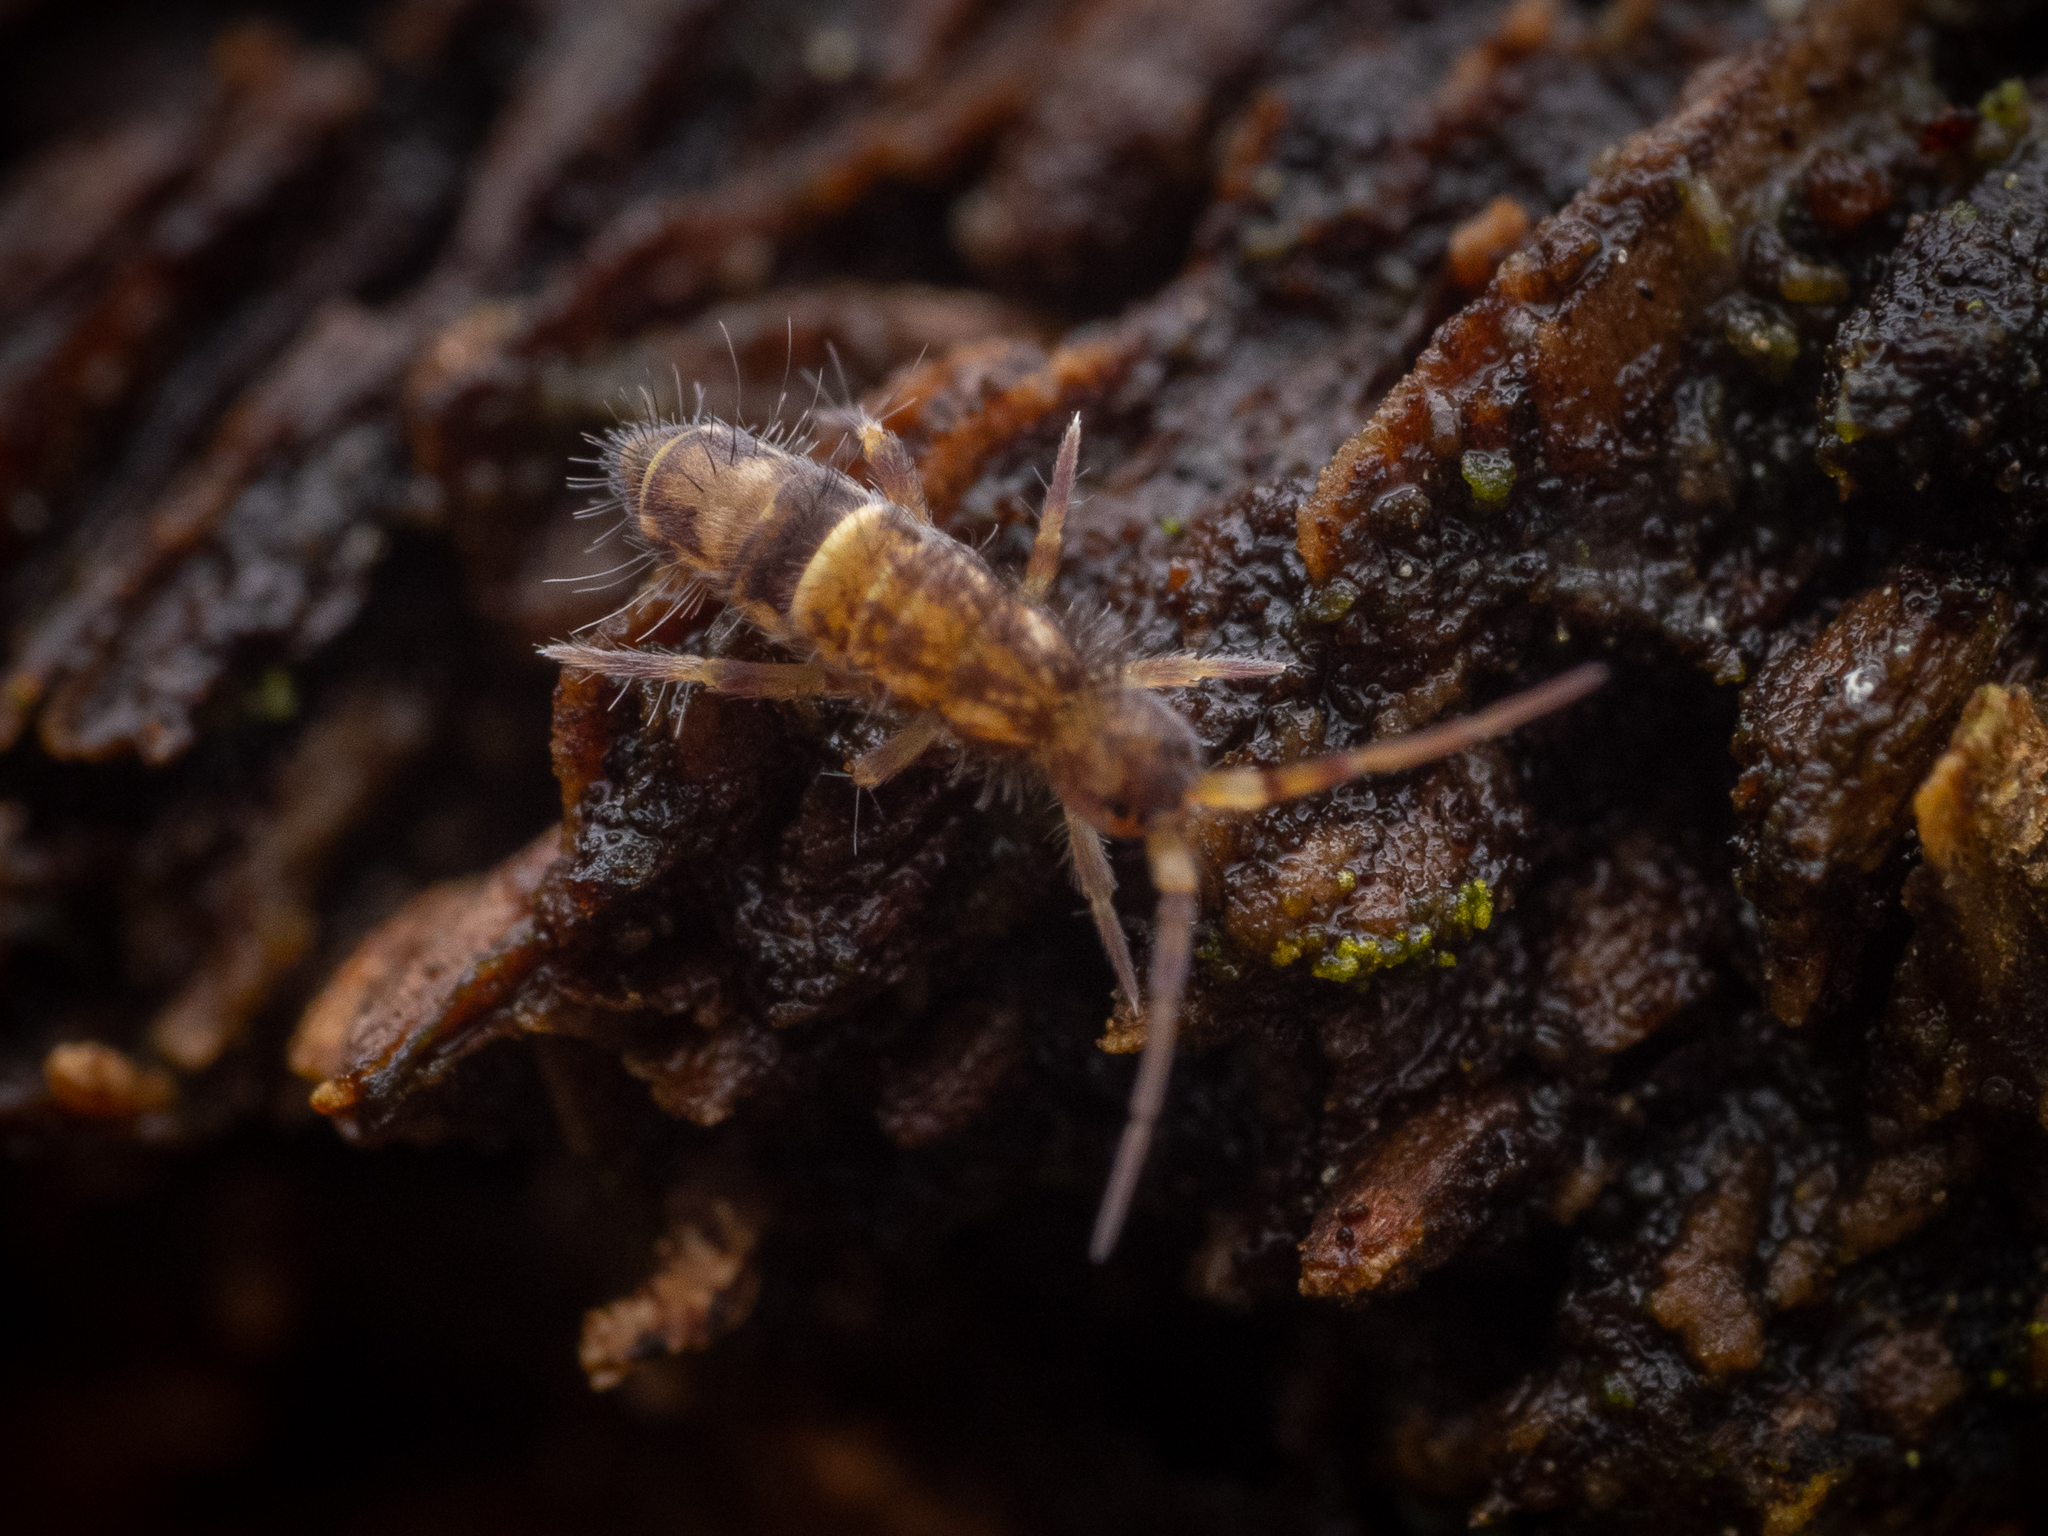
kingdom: Animalia
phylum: Arthropoda
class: Collembola
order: Entomobryomorpha
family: Orchesellidae
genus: Orchesella
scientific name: Orchesella cincta
